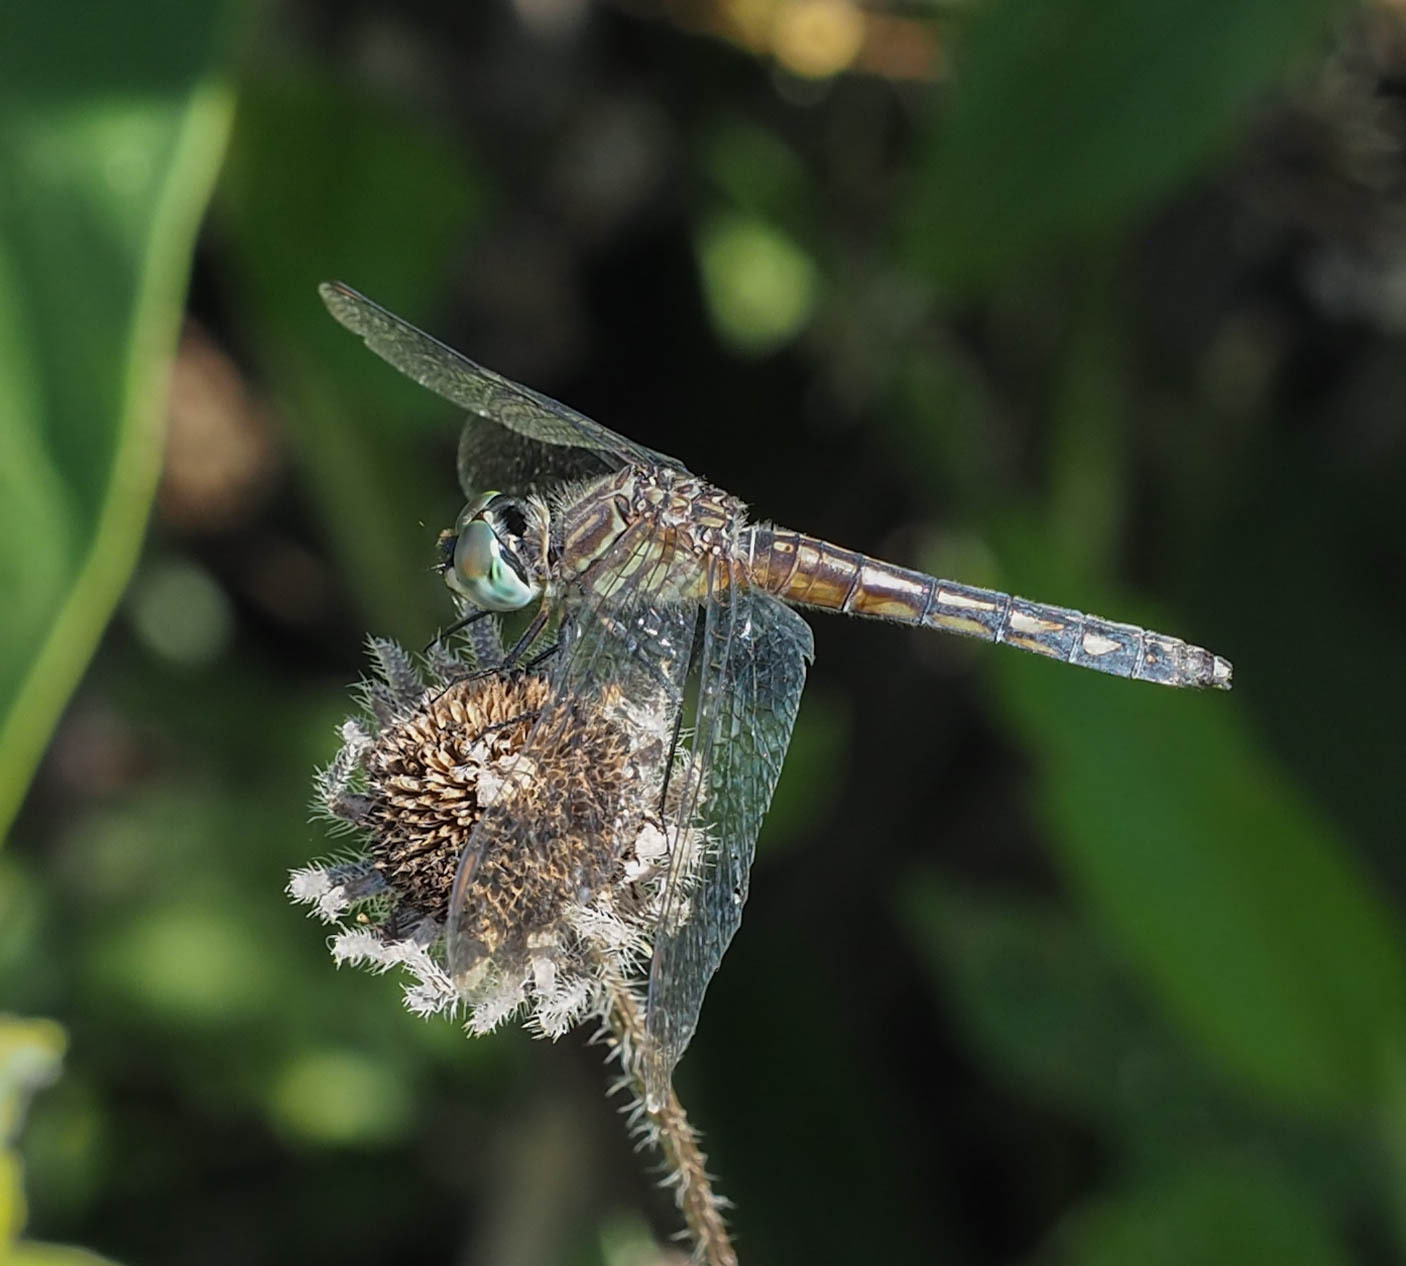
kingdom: Animalia
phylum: Arthropoda
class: Insecta
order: Odonata
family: Libellulidae
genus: Pachydiplax
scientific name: Pachydiplax longipennis
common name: Blue dasher
